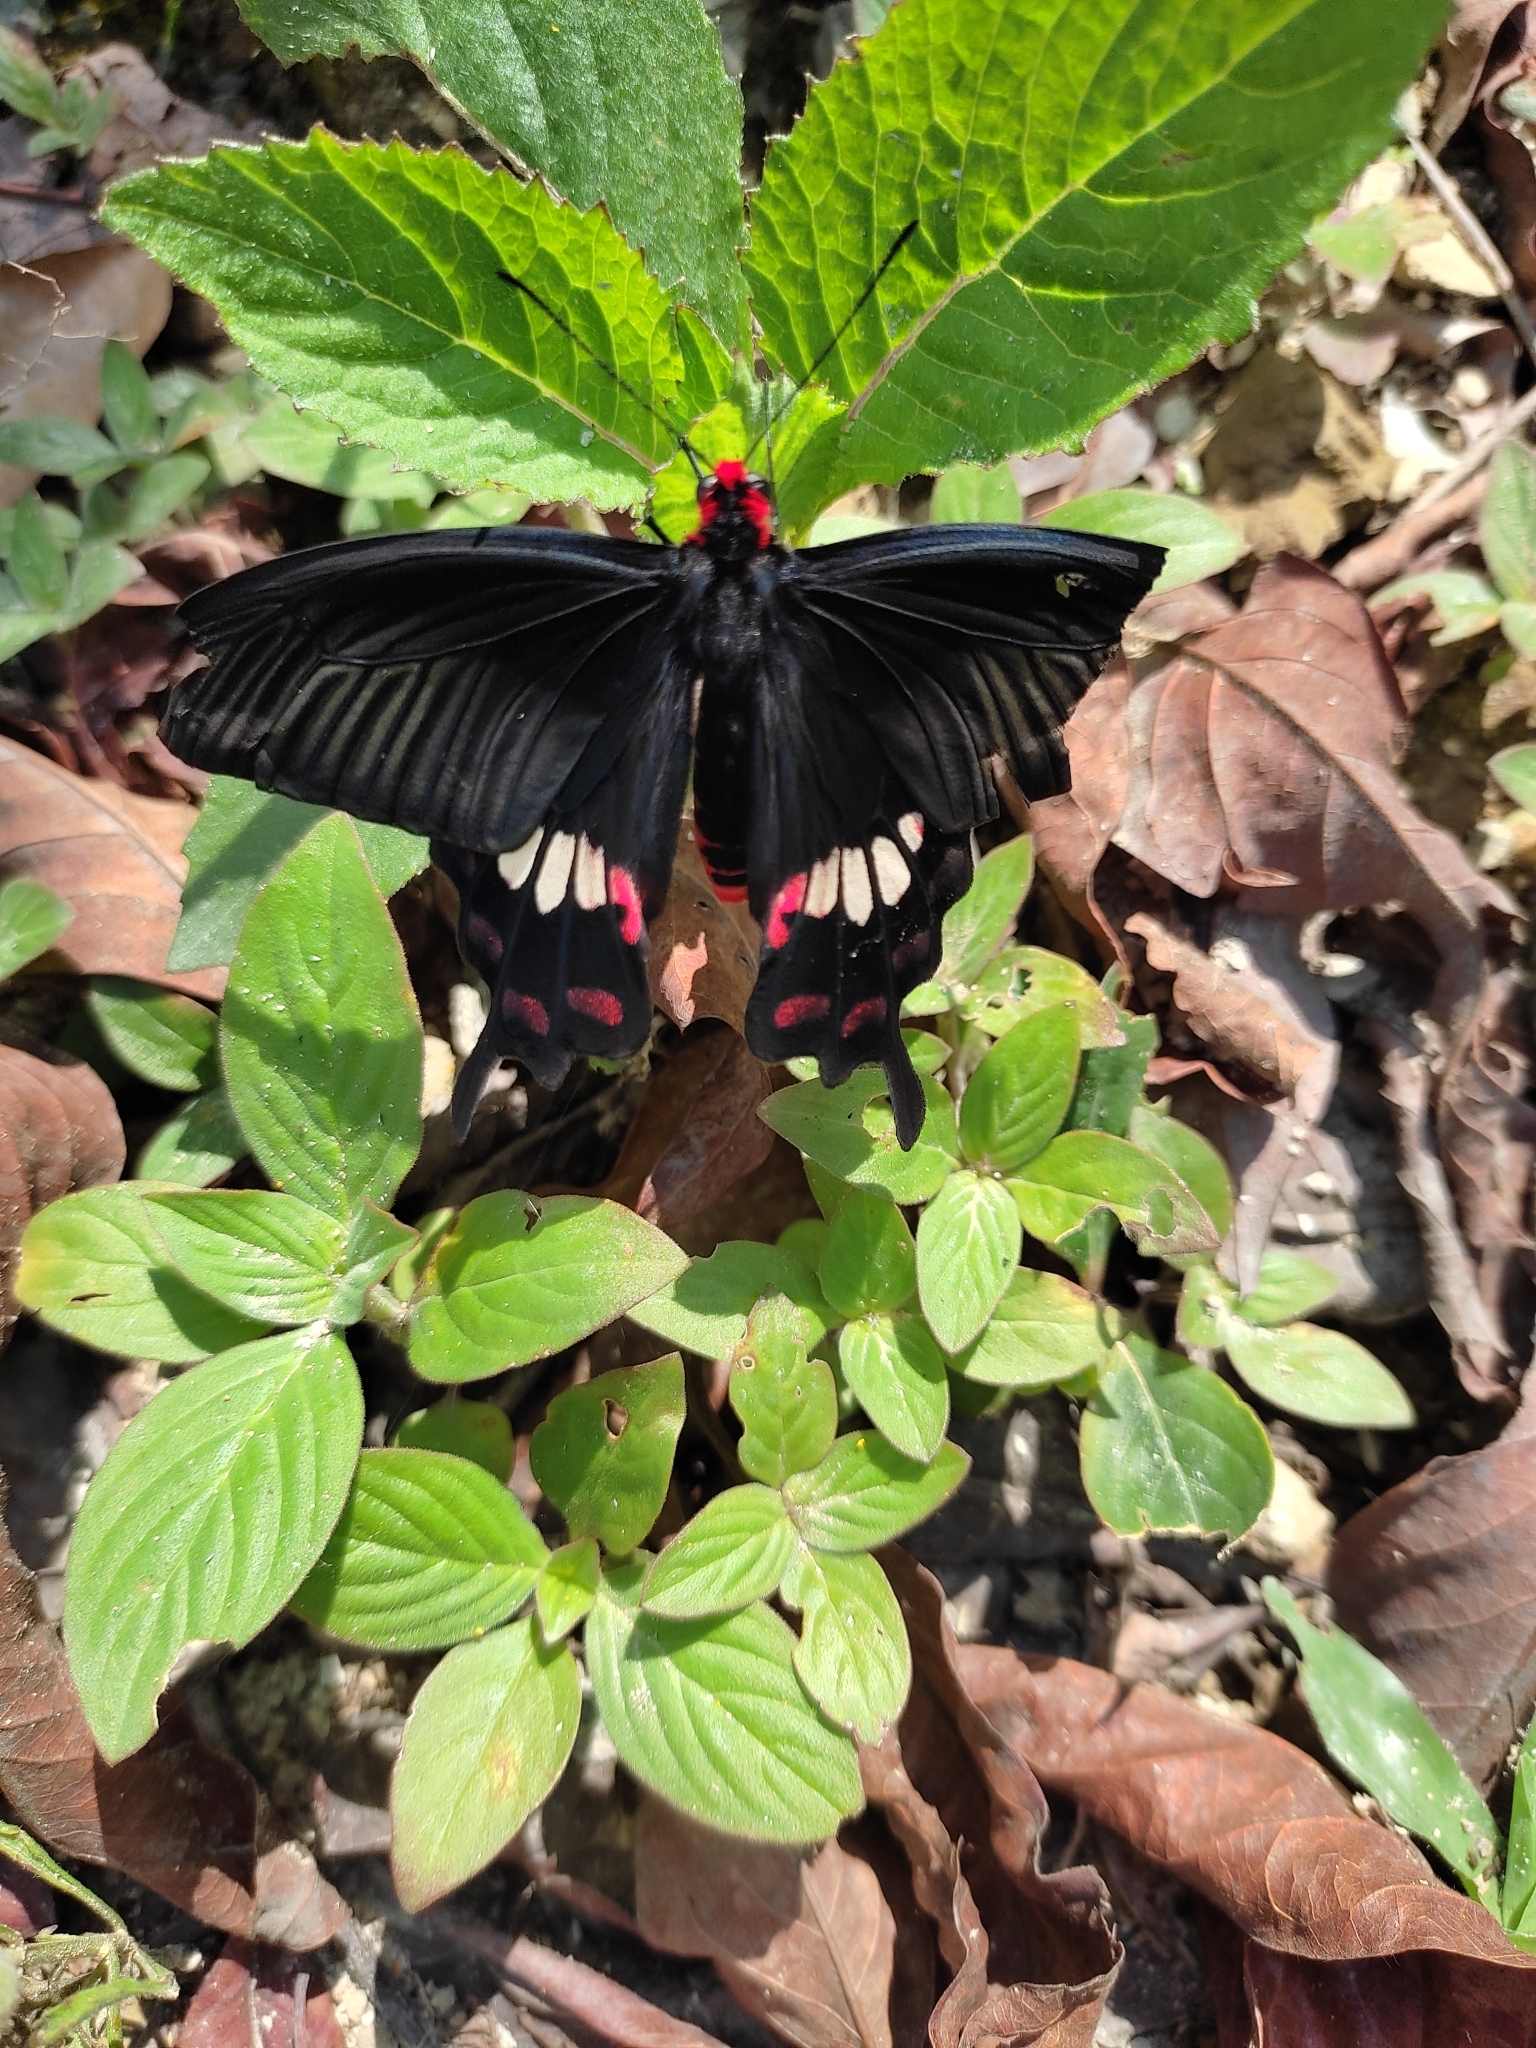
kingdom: Animalia
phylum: Arthropoda
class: Insecta
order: Lepidoptera
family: Papilionidae
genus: Pachliopta
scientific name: Pachliopta aristolochiae
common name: Common rose
